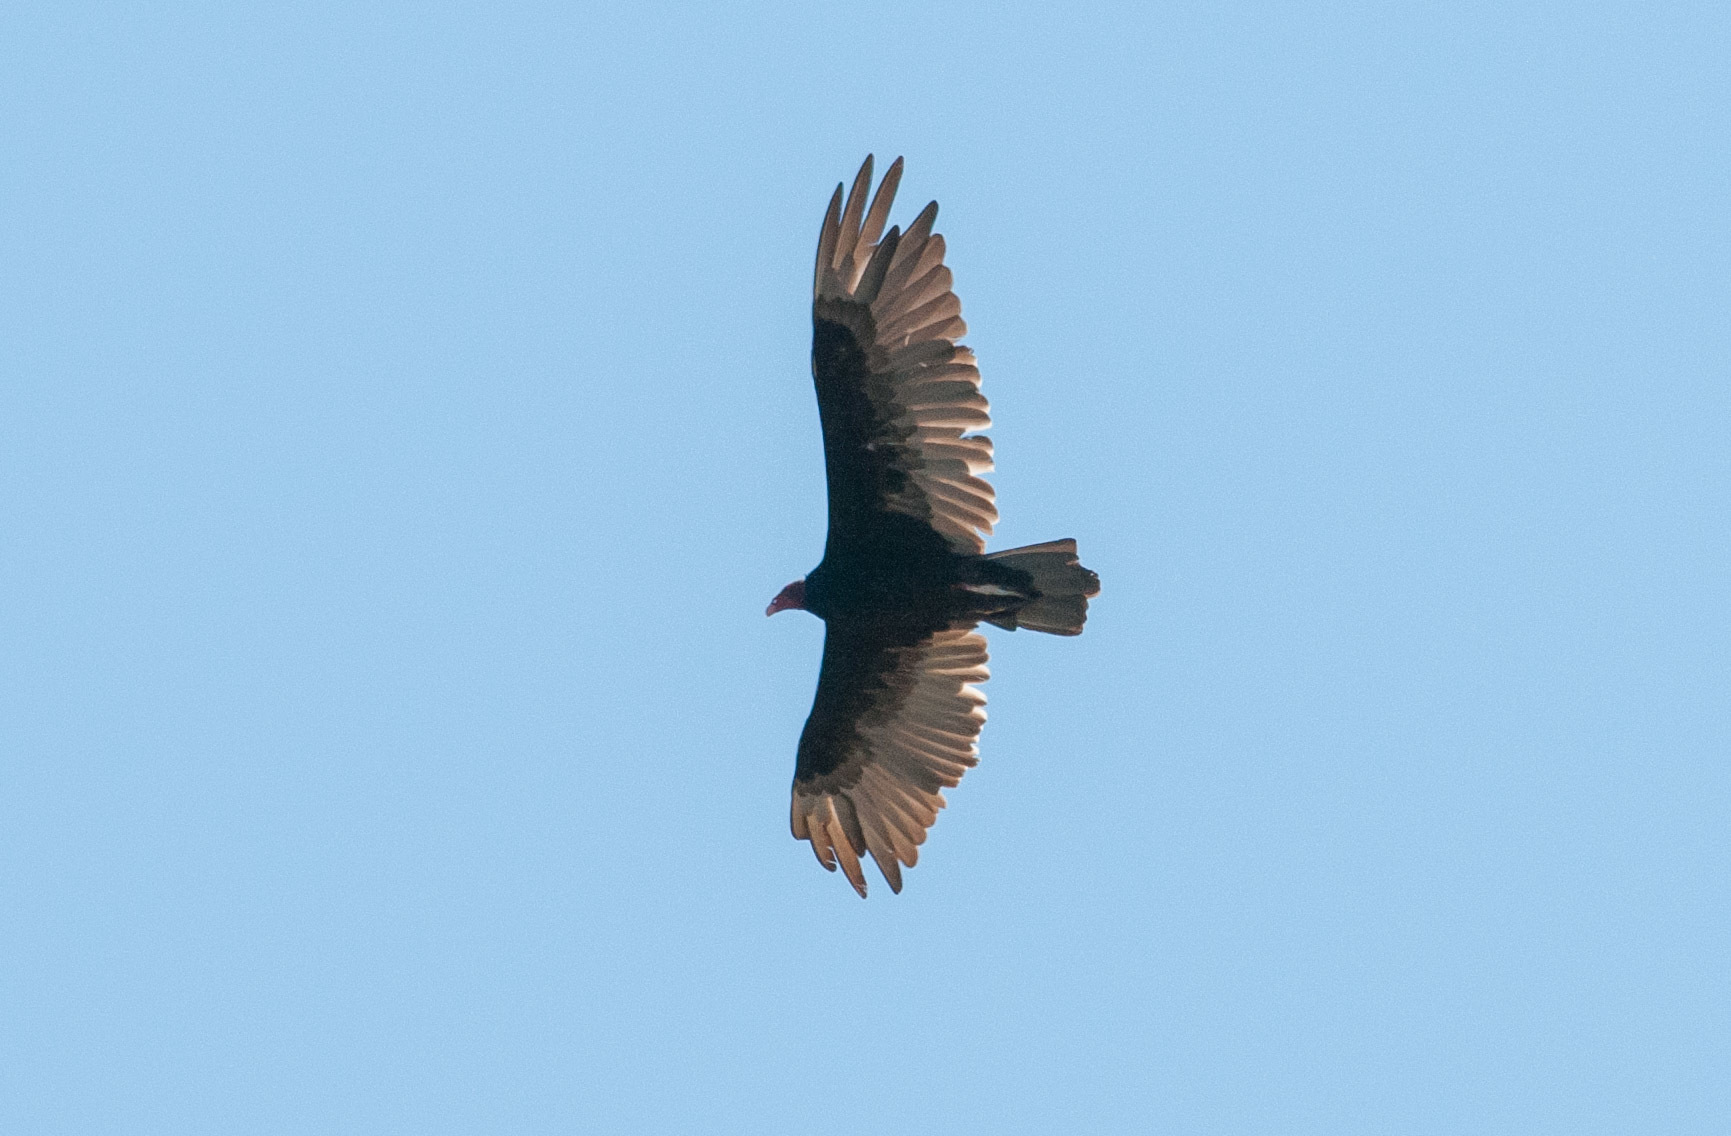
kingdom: Animalia
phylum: Chordata
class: Aves
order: Accipitriformes
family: Cathartidae
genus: Cathartes
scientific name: Cathartes aura
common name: Turkey vulture
